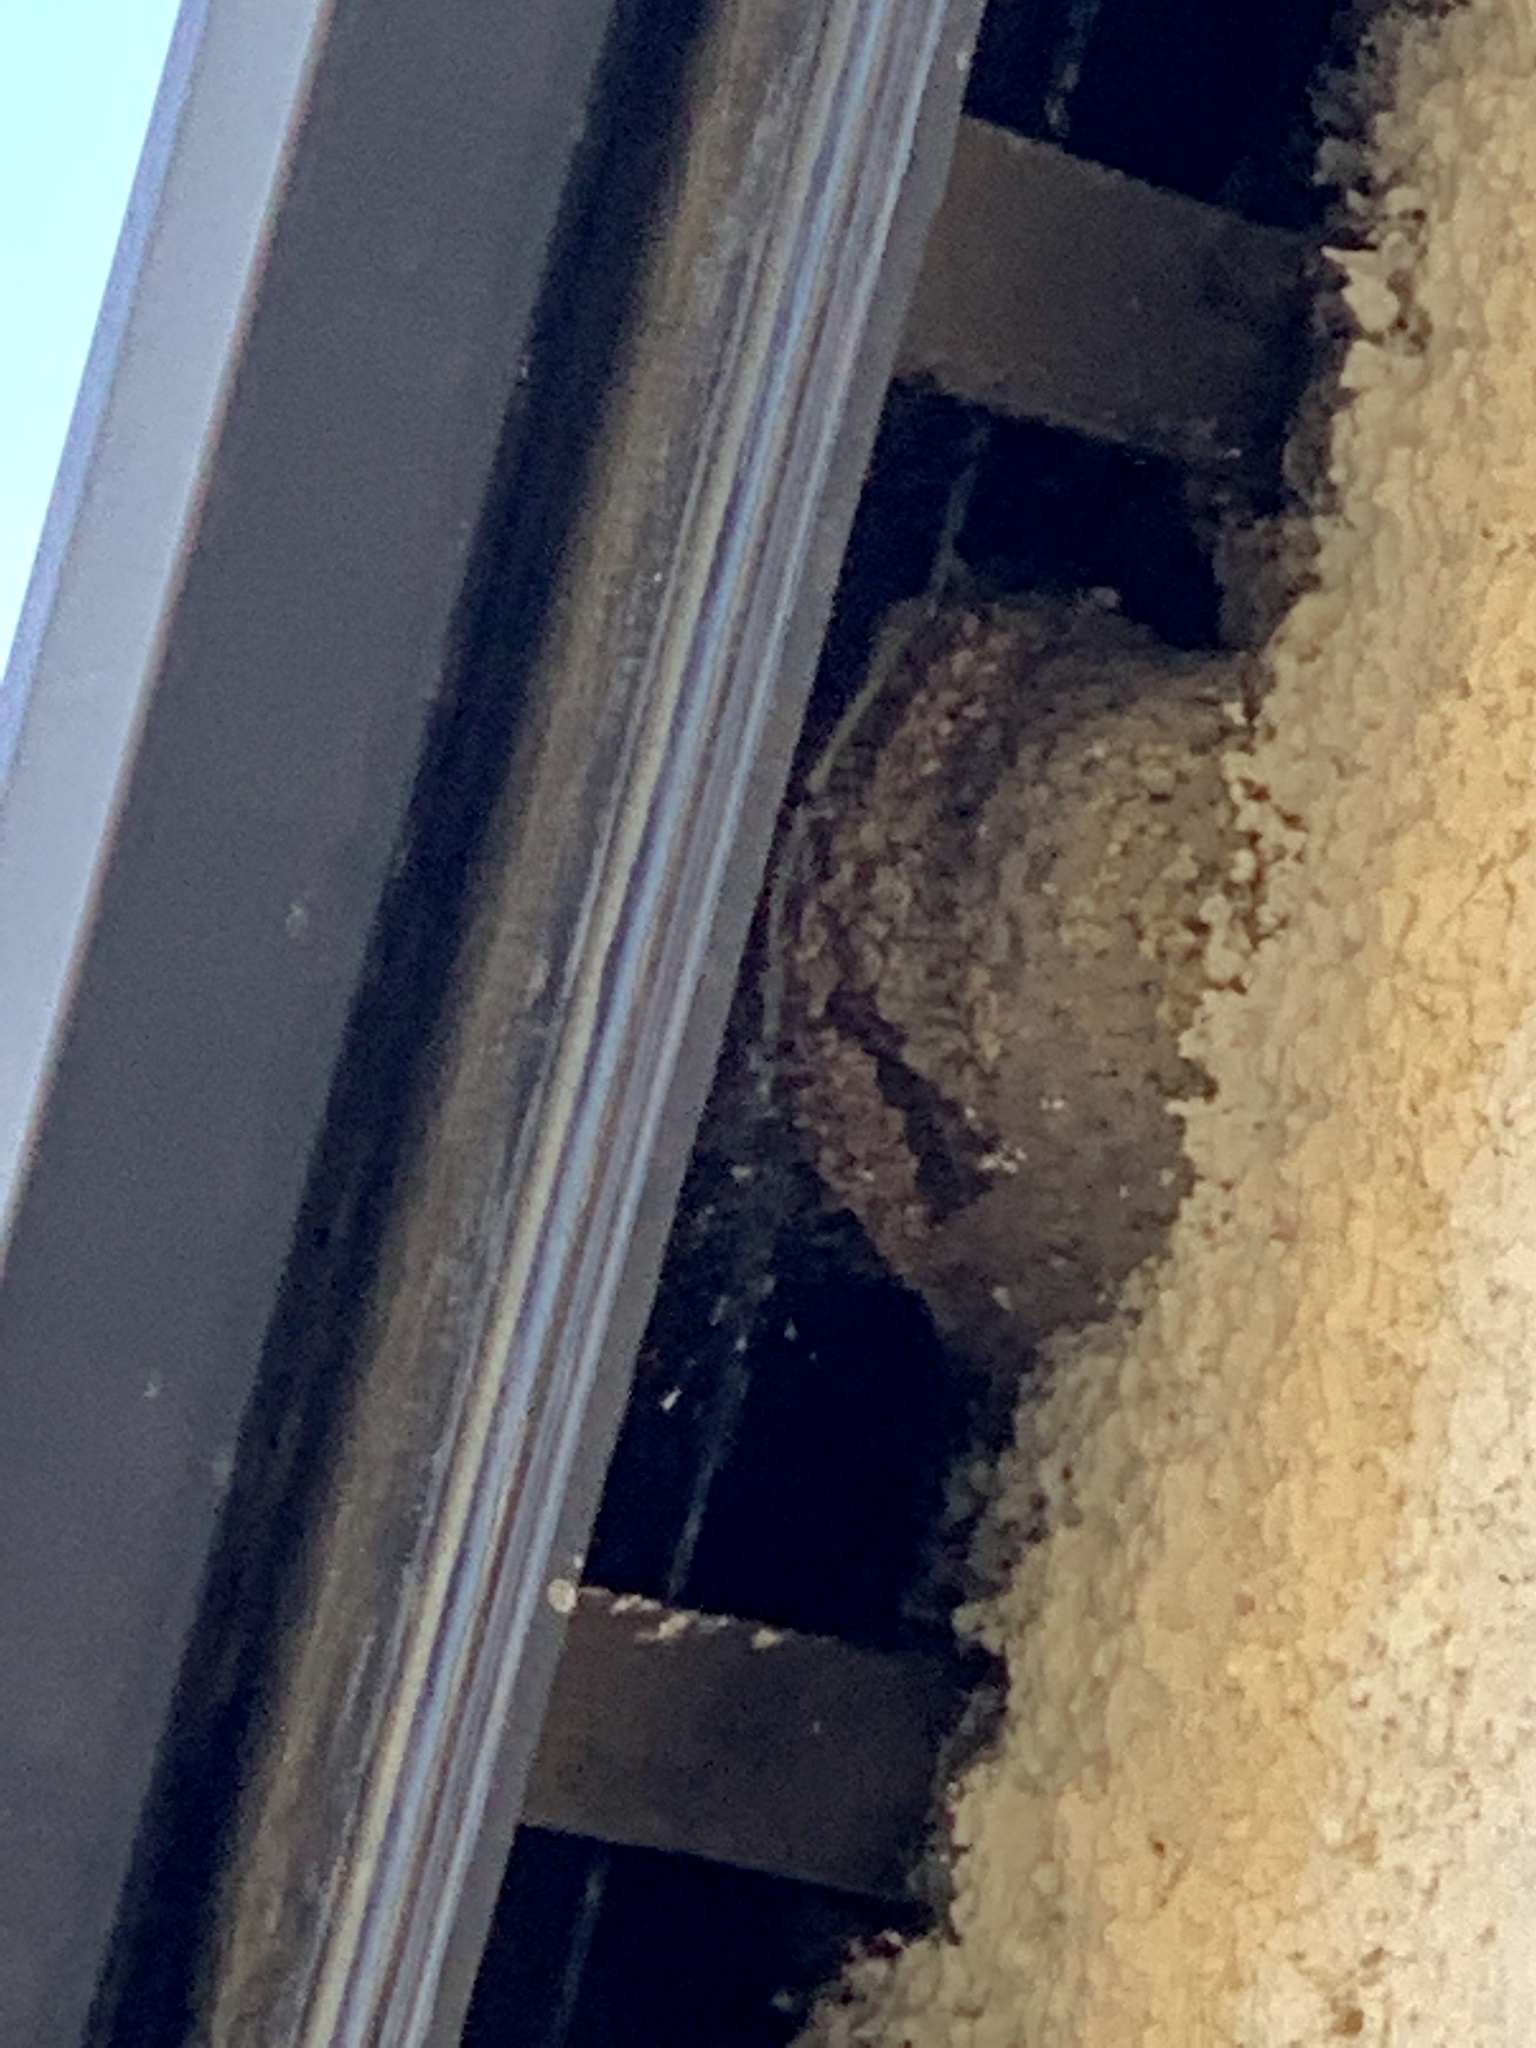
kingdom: Animalia
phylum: Chordata
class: Aves
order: Passeriformes
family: Hirundinidae
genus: Delichon
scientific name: Delichon urbicum
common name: Common house martin
